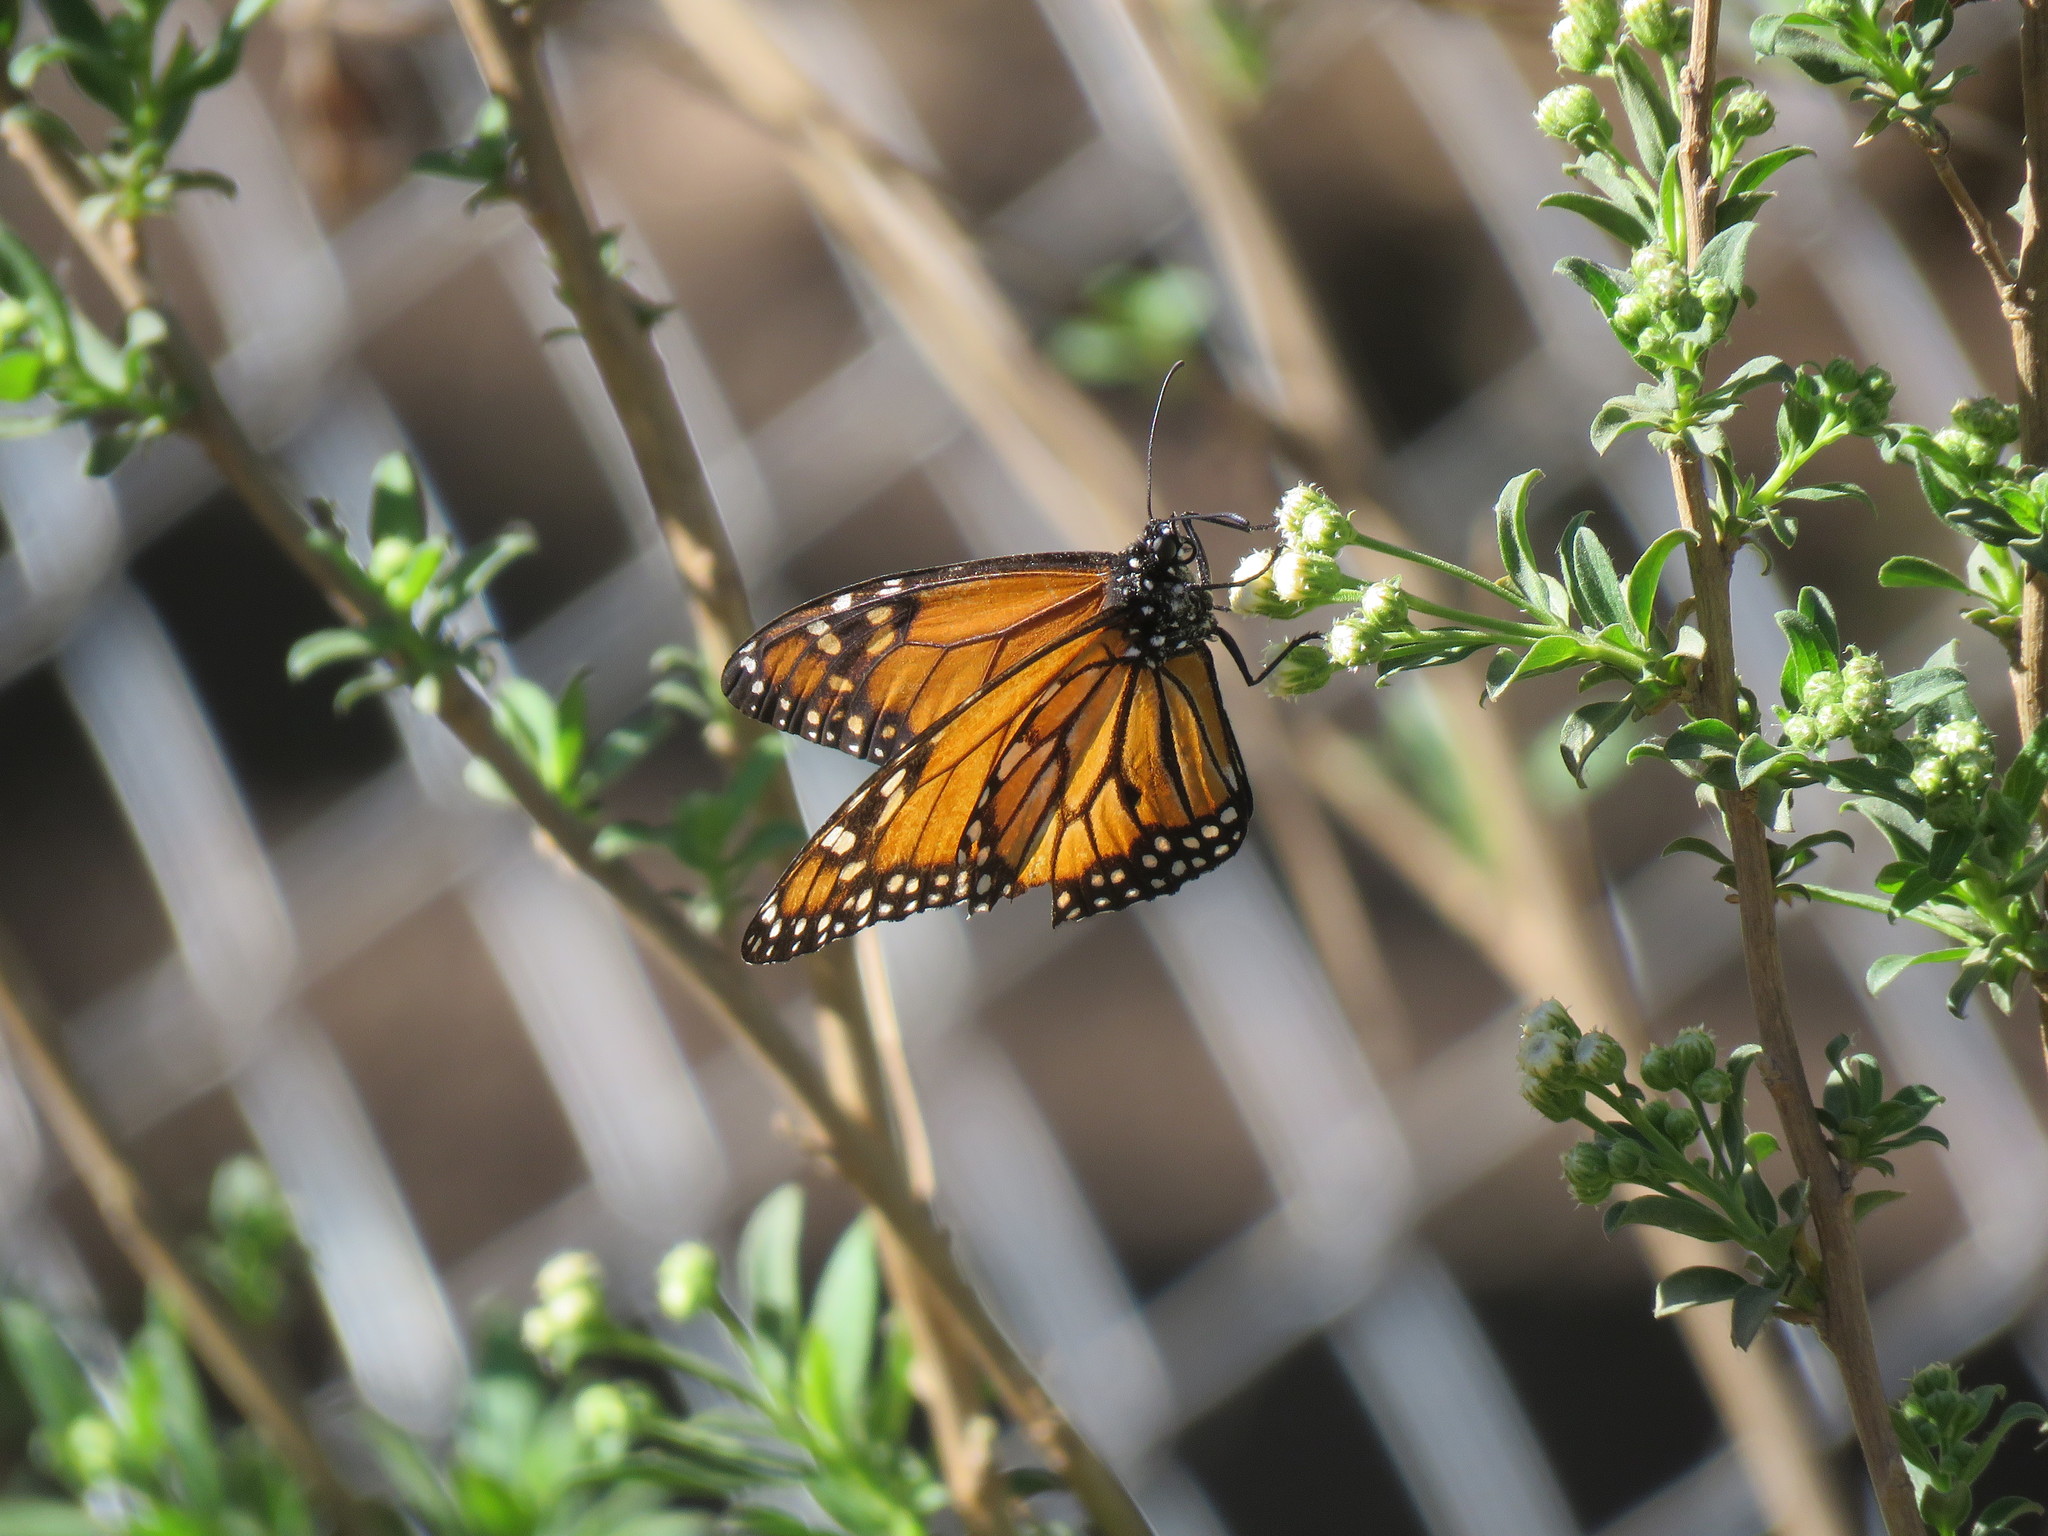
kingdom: Animalia
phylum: Arthropoda
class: Insecta
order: Lepidoptera
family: Nymphalidae
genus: Danaus
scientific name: Danaus erippus
